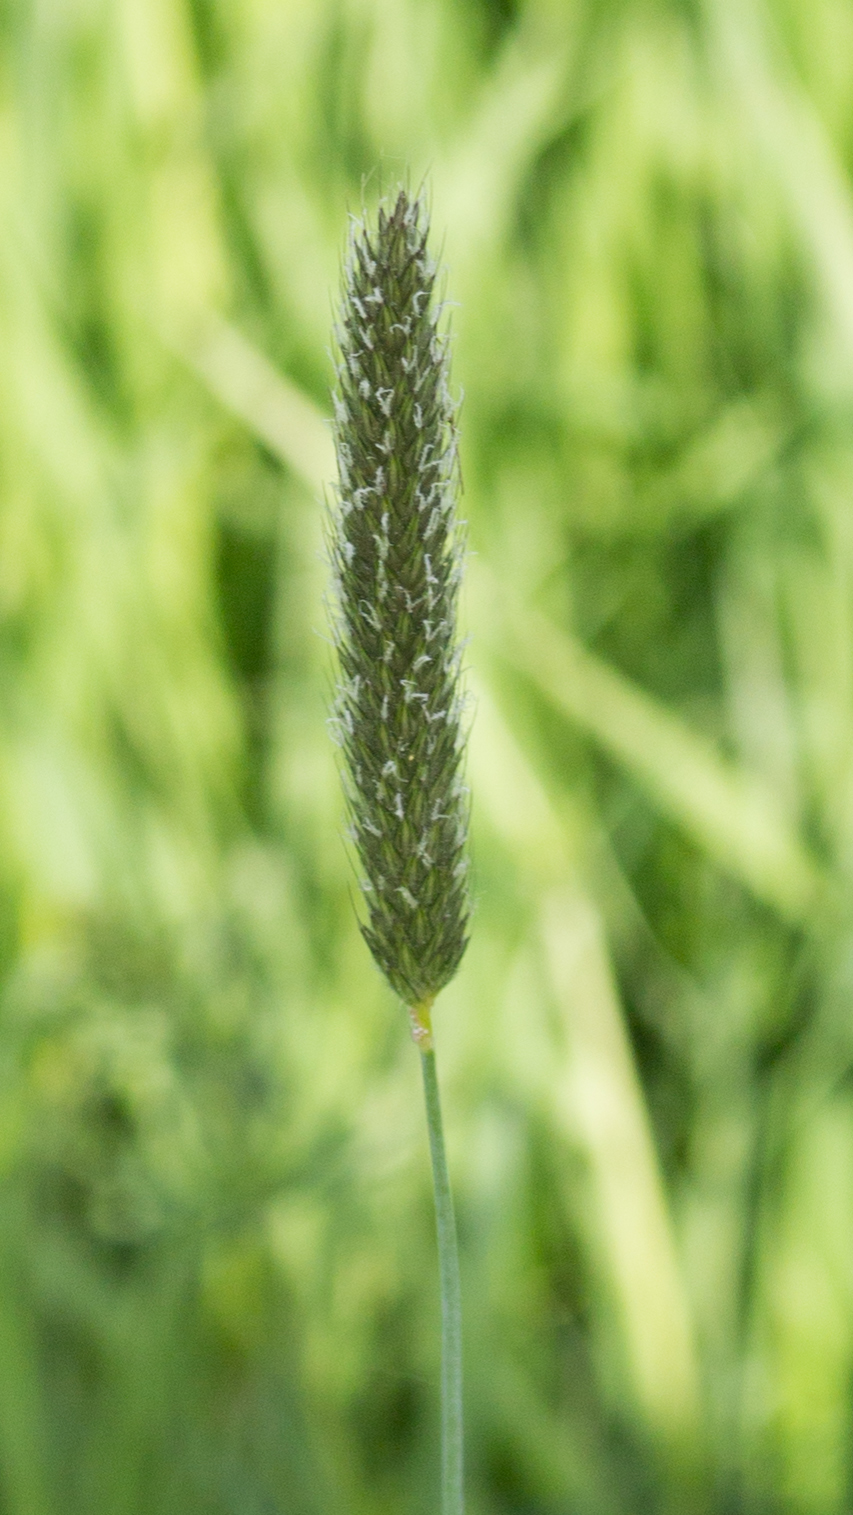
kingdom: Plantae
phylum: Tracheophyta
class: Liliopsida
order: Poales
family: Poaceae
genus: Alopecurus
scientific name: Alopecurus pratensis
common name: Meadow foxtail
